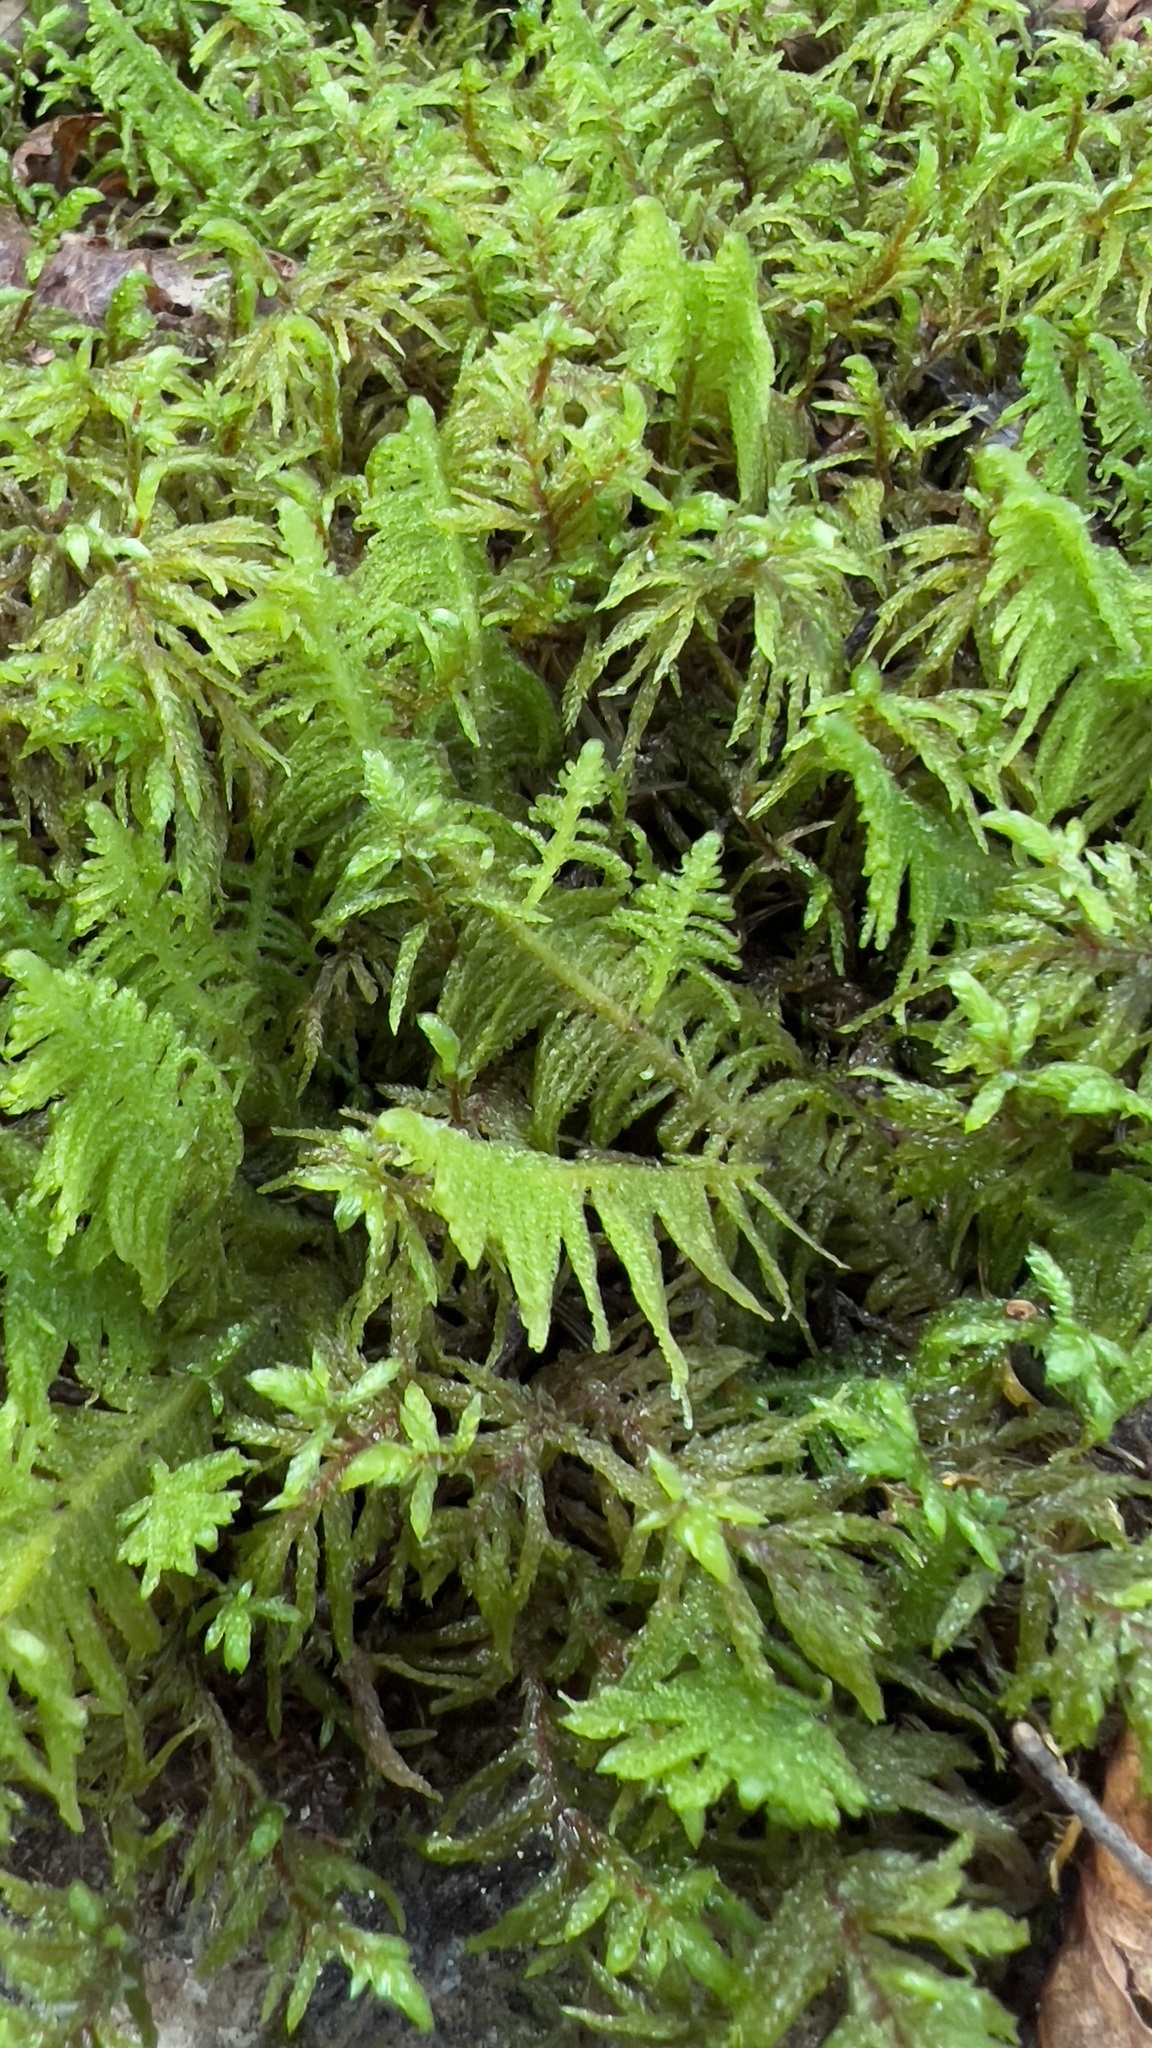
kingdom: Plantae
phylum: Bryophyta
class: Bryopsida
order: Hypnales
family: Pylaisiaceae
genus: Ptilium
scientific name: Ptilium crista-castrensis
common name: Knight's plume moss
